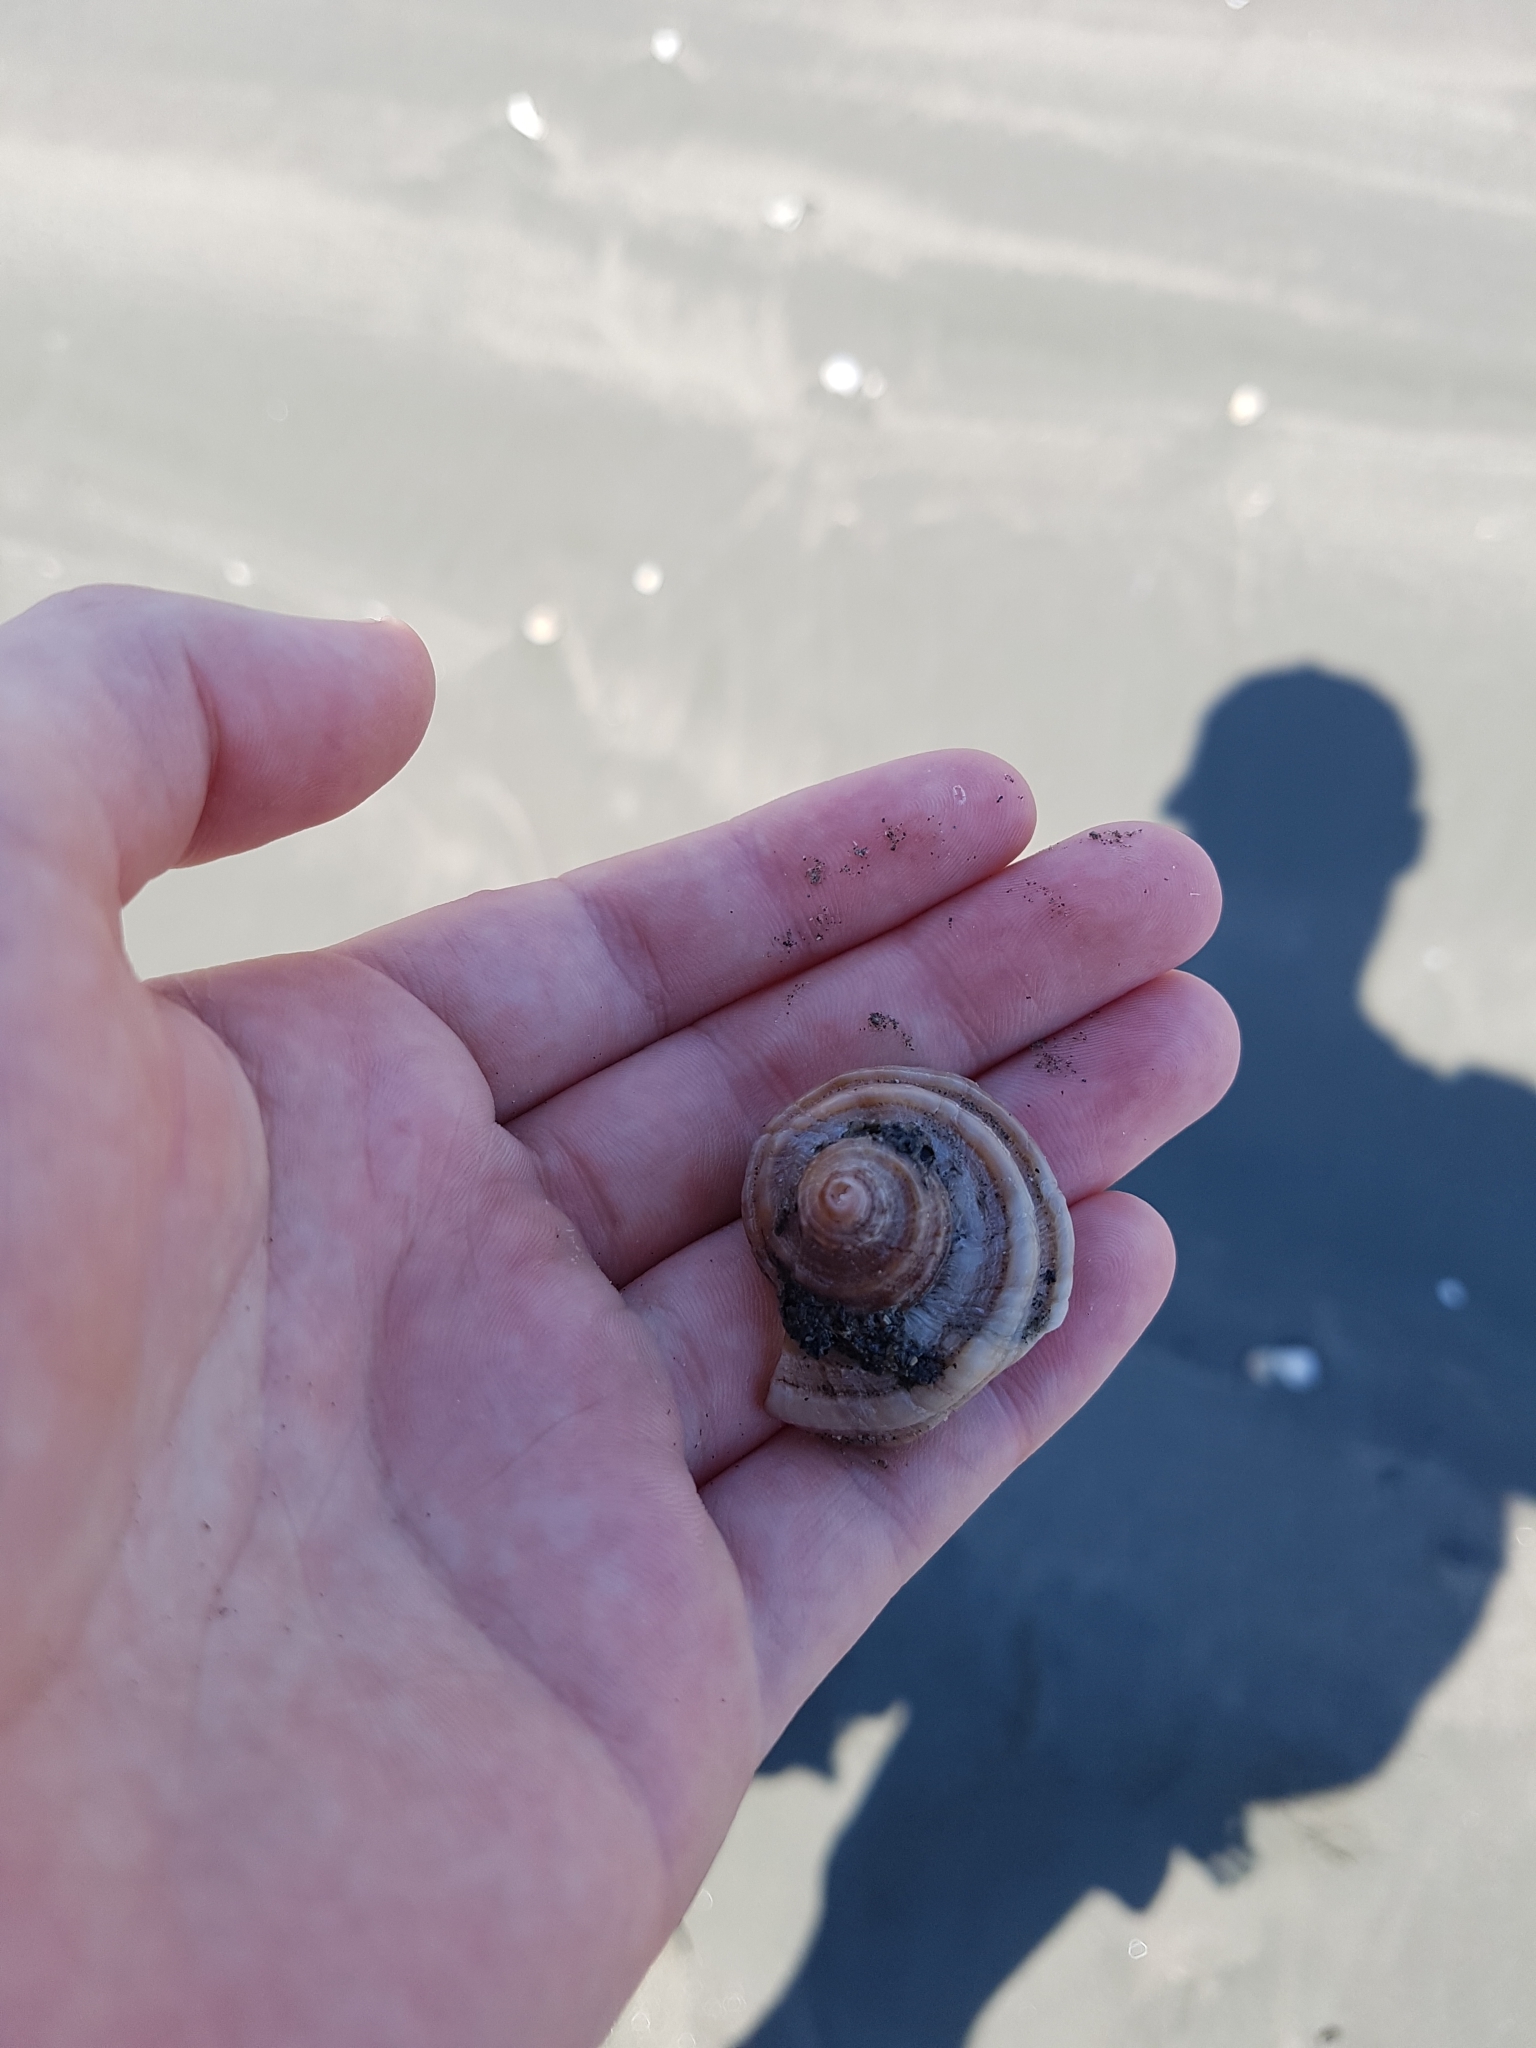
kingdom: Animalia
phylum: Mollusca
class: Gastropoda
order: Neogastropoda
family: Muricidae
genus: Dicathais
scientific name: Dicathais orbita
